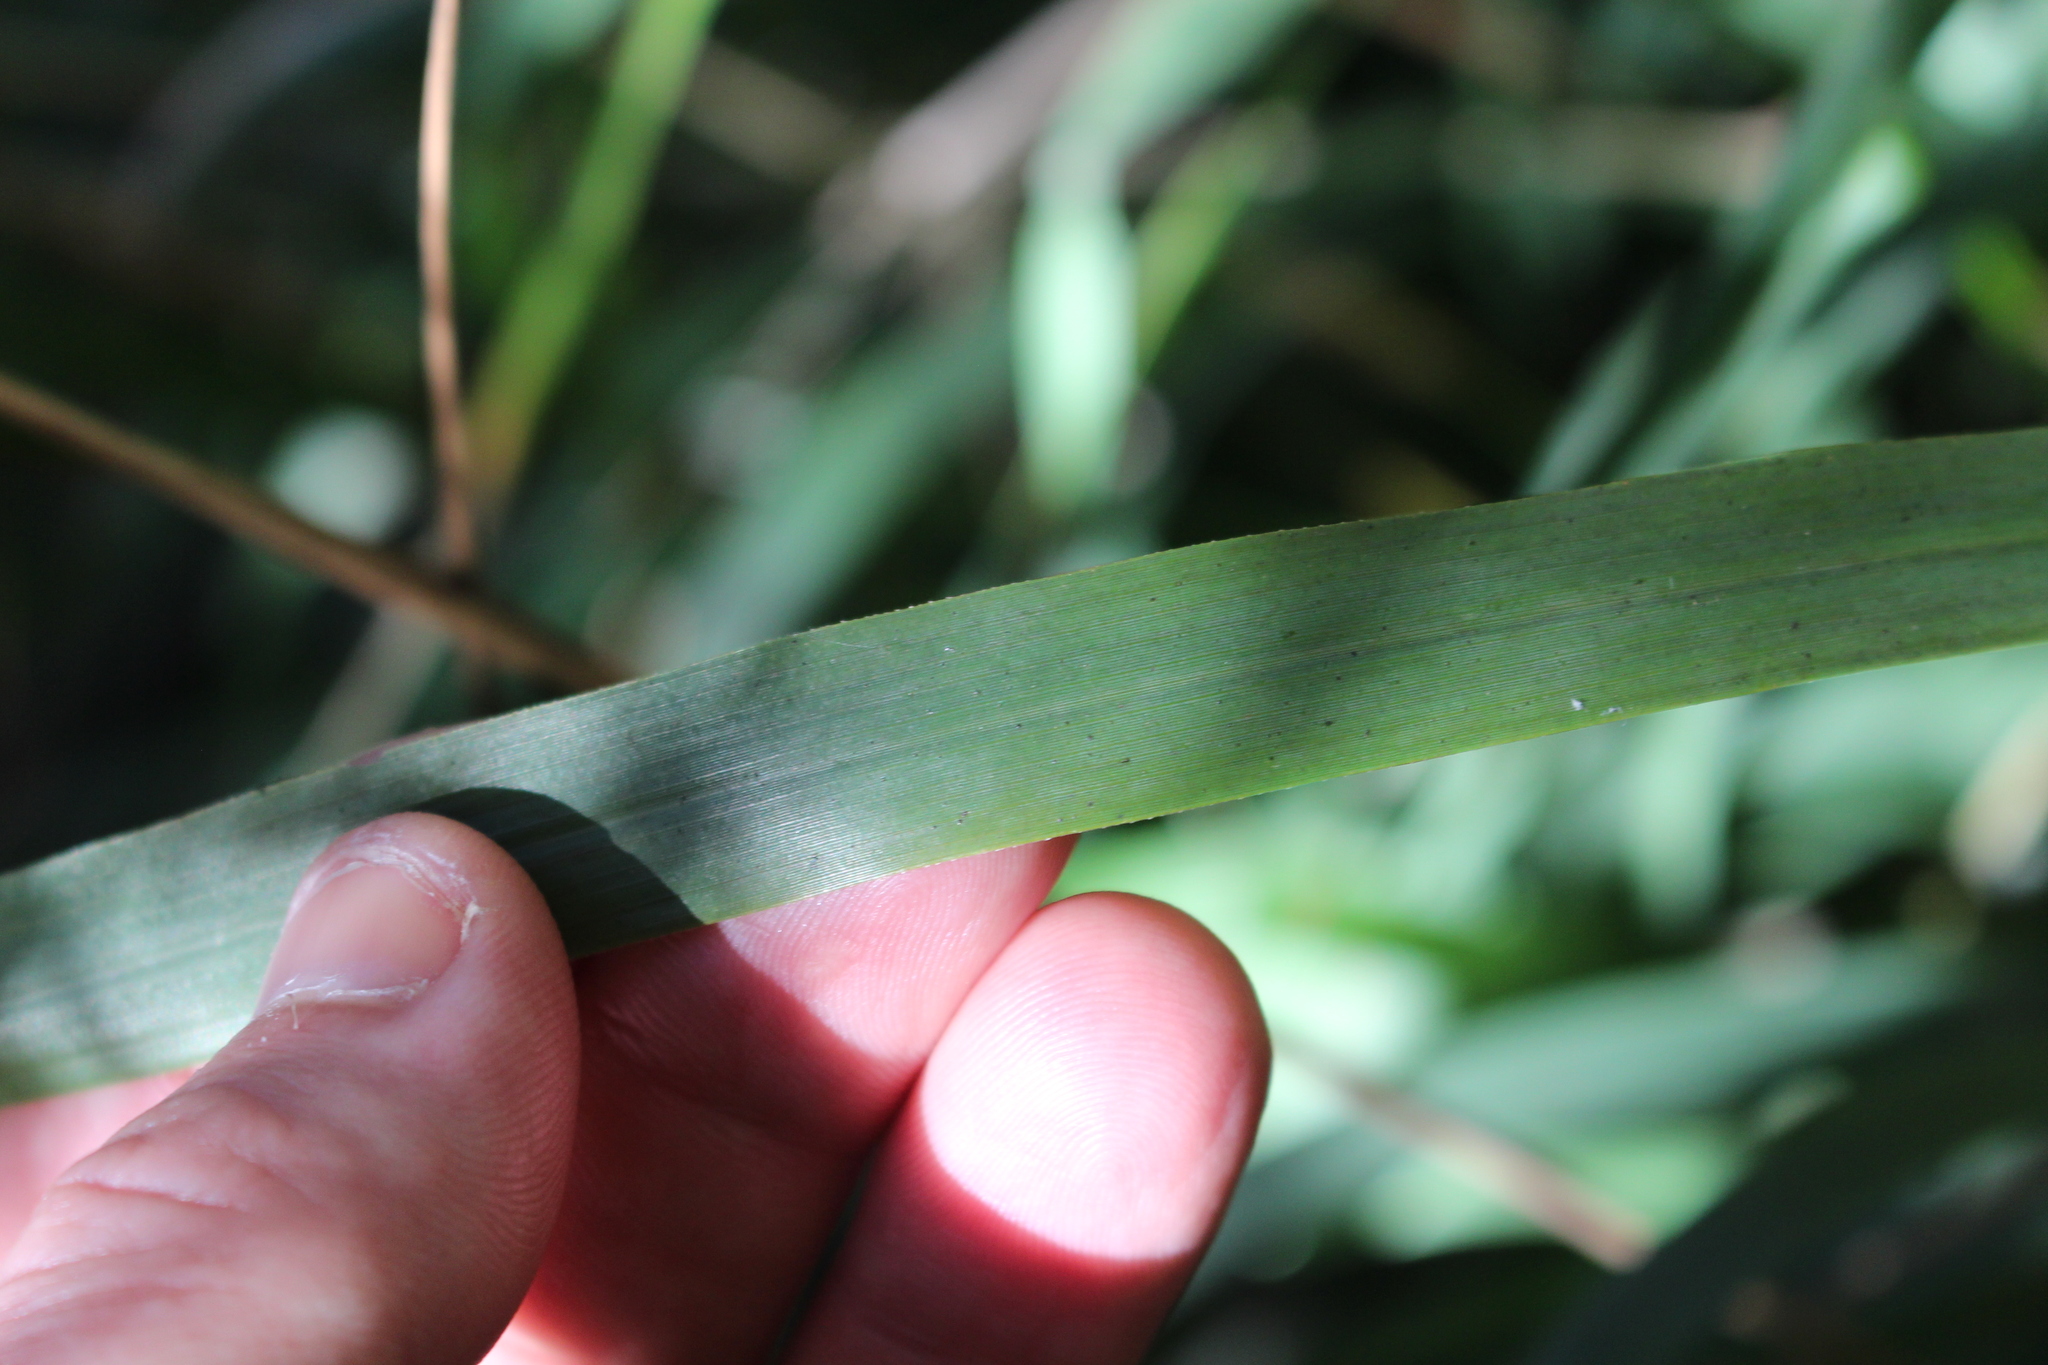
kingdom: Plantae
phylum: Tracheophyta
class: Liliopsida
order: Poales
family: Poaceae
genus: Ehrharta
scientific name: Ehrharta diplax
